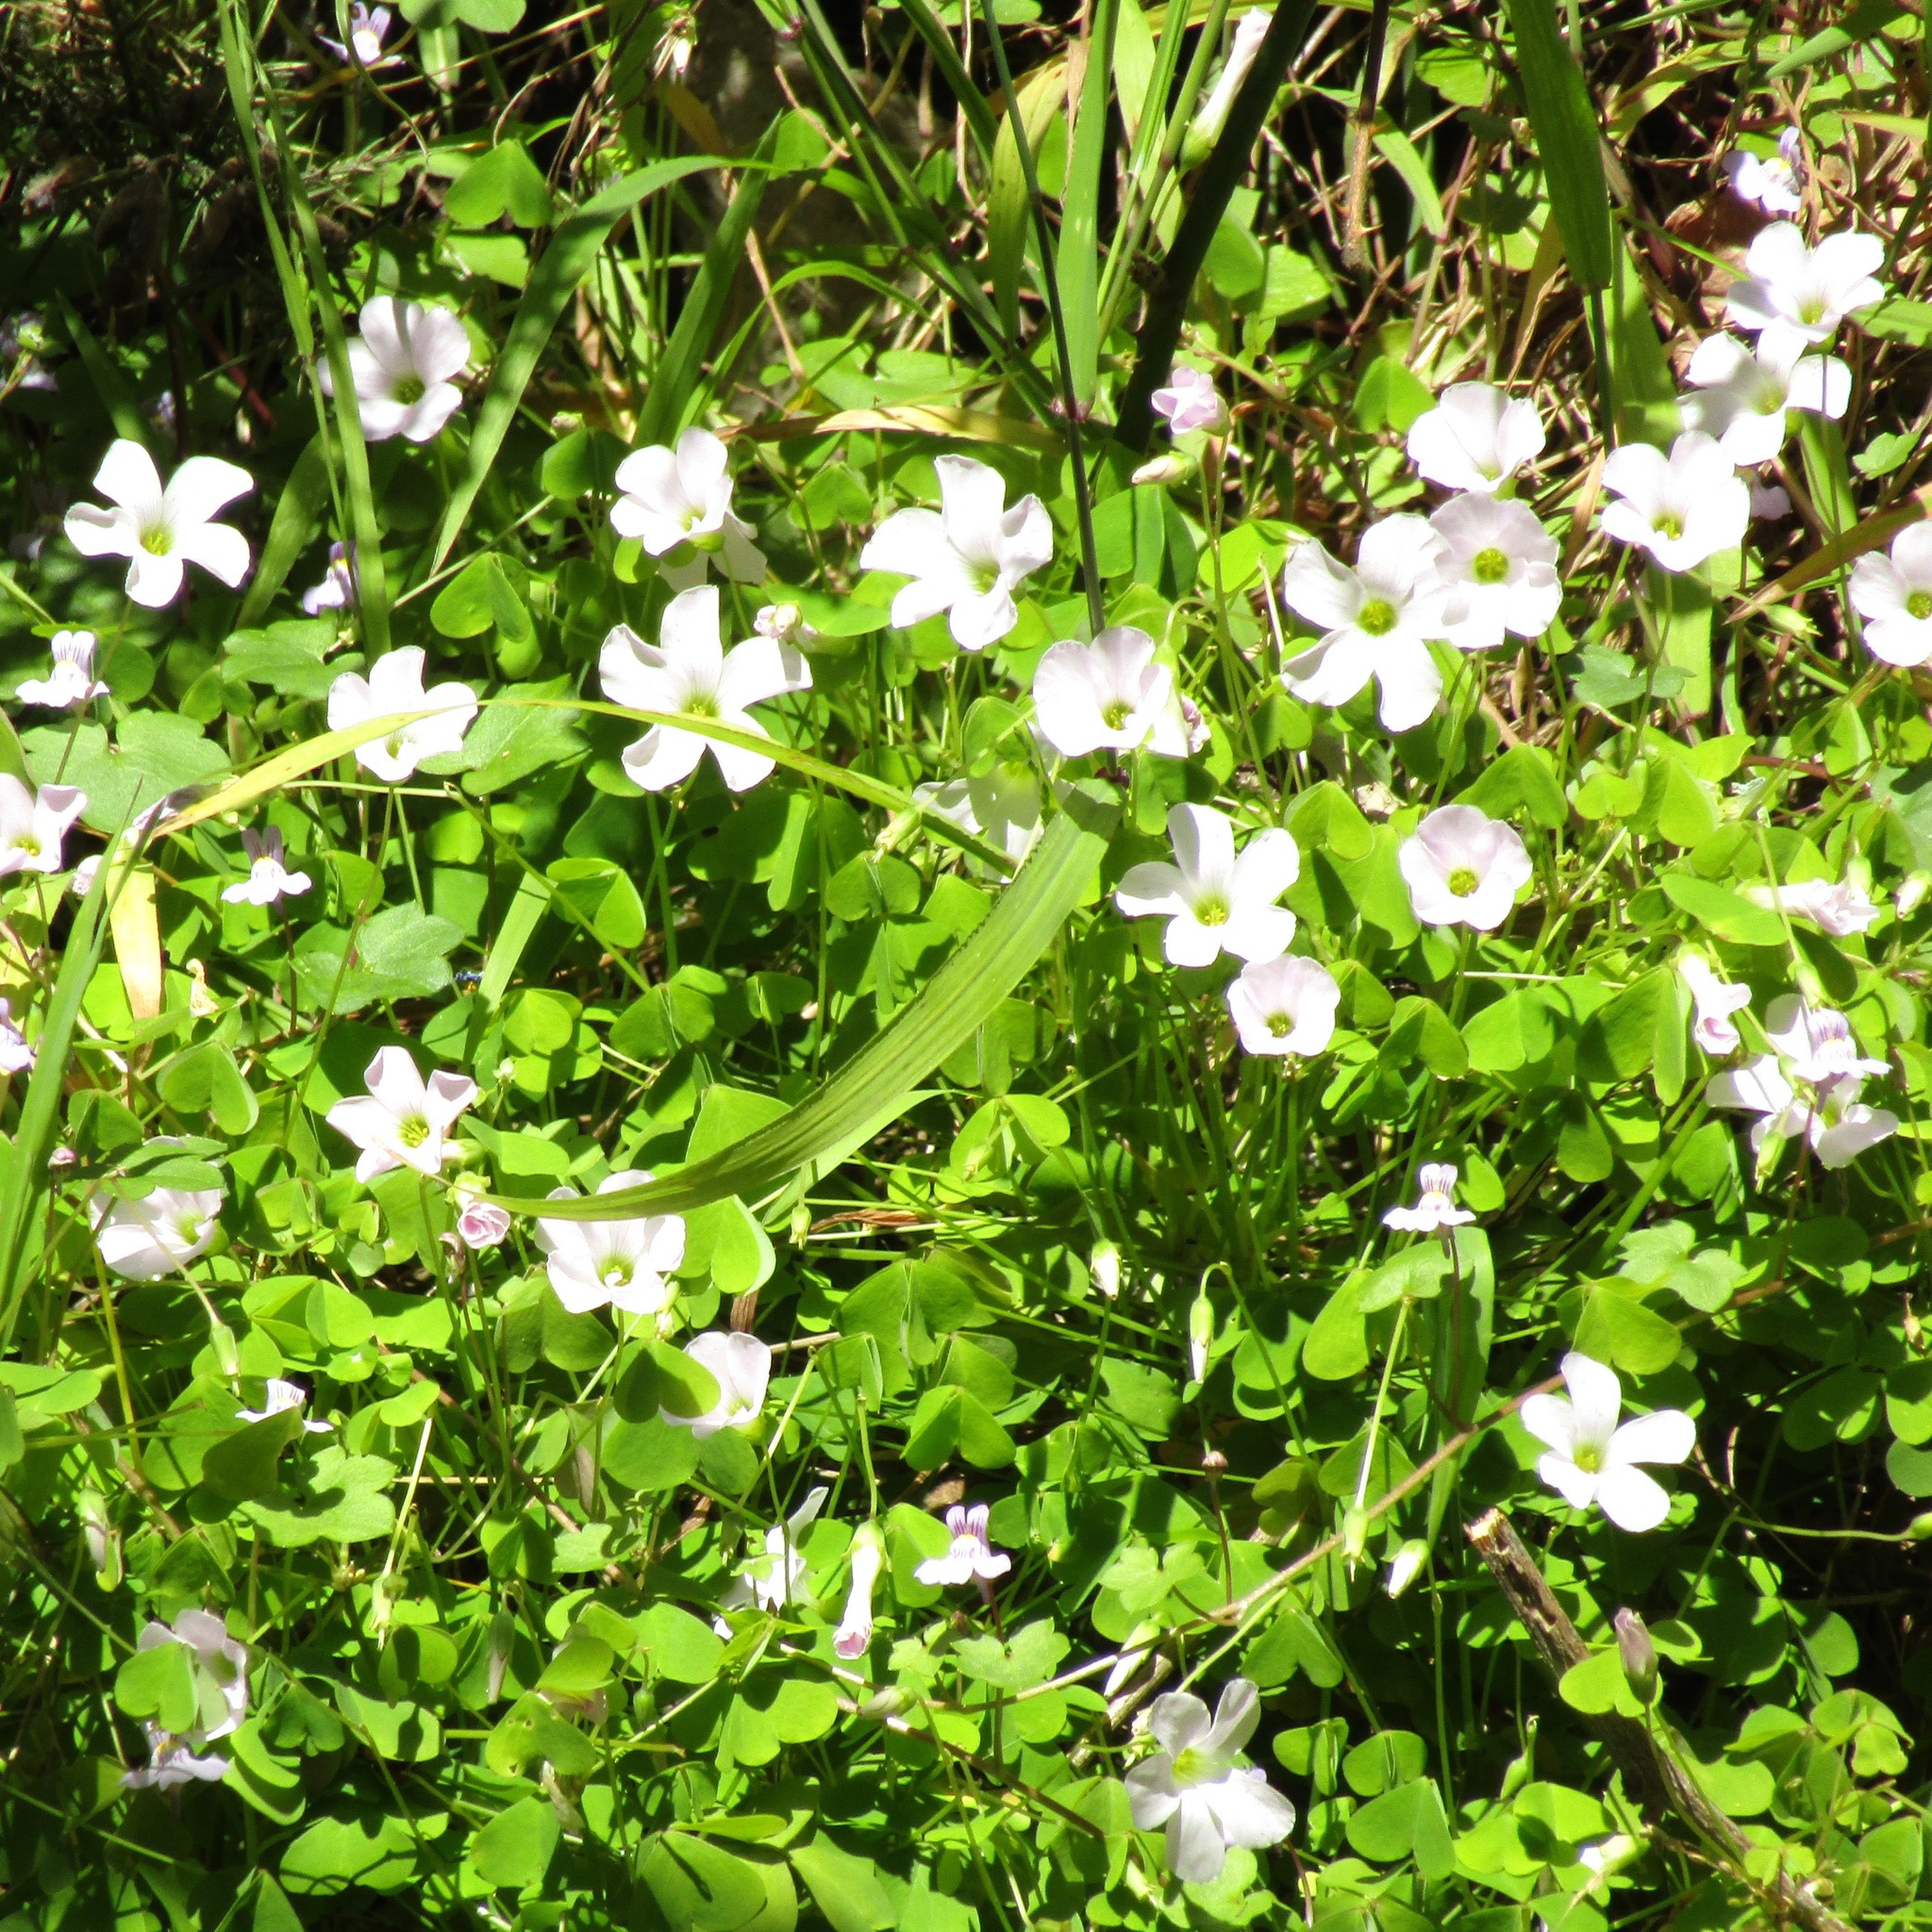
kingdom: Plantae
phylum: Tracheophyta
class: Magnoliopsida
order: Oxalidales
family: Oxalidaceae
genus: Oxalis
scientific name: Oxalis incarnata
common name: Pale pink-sorrel
